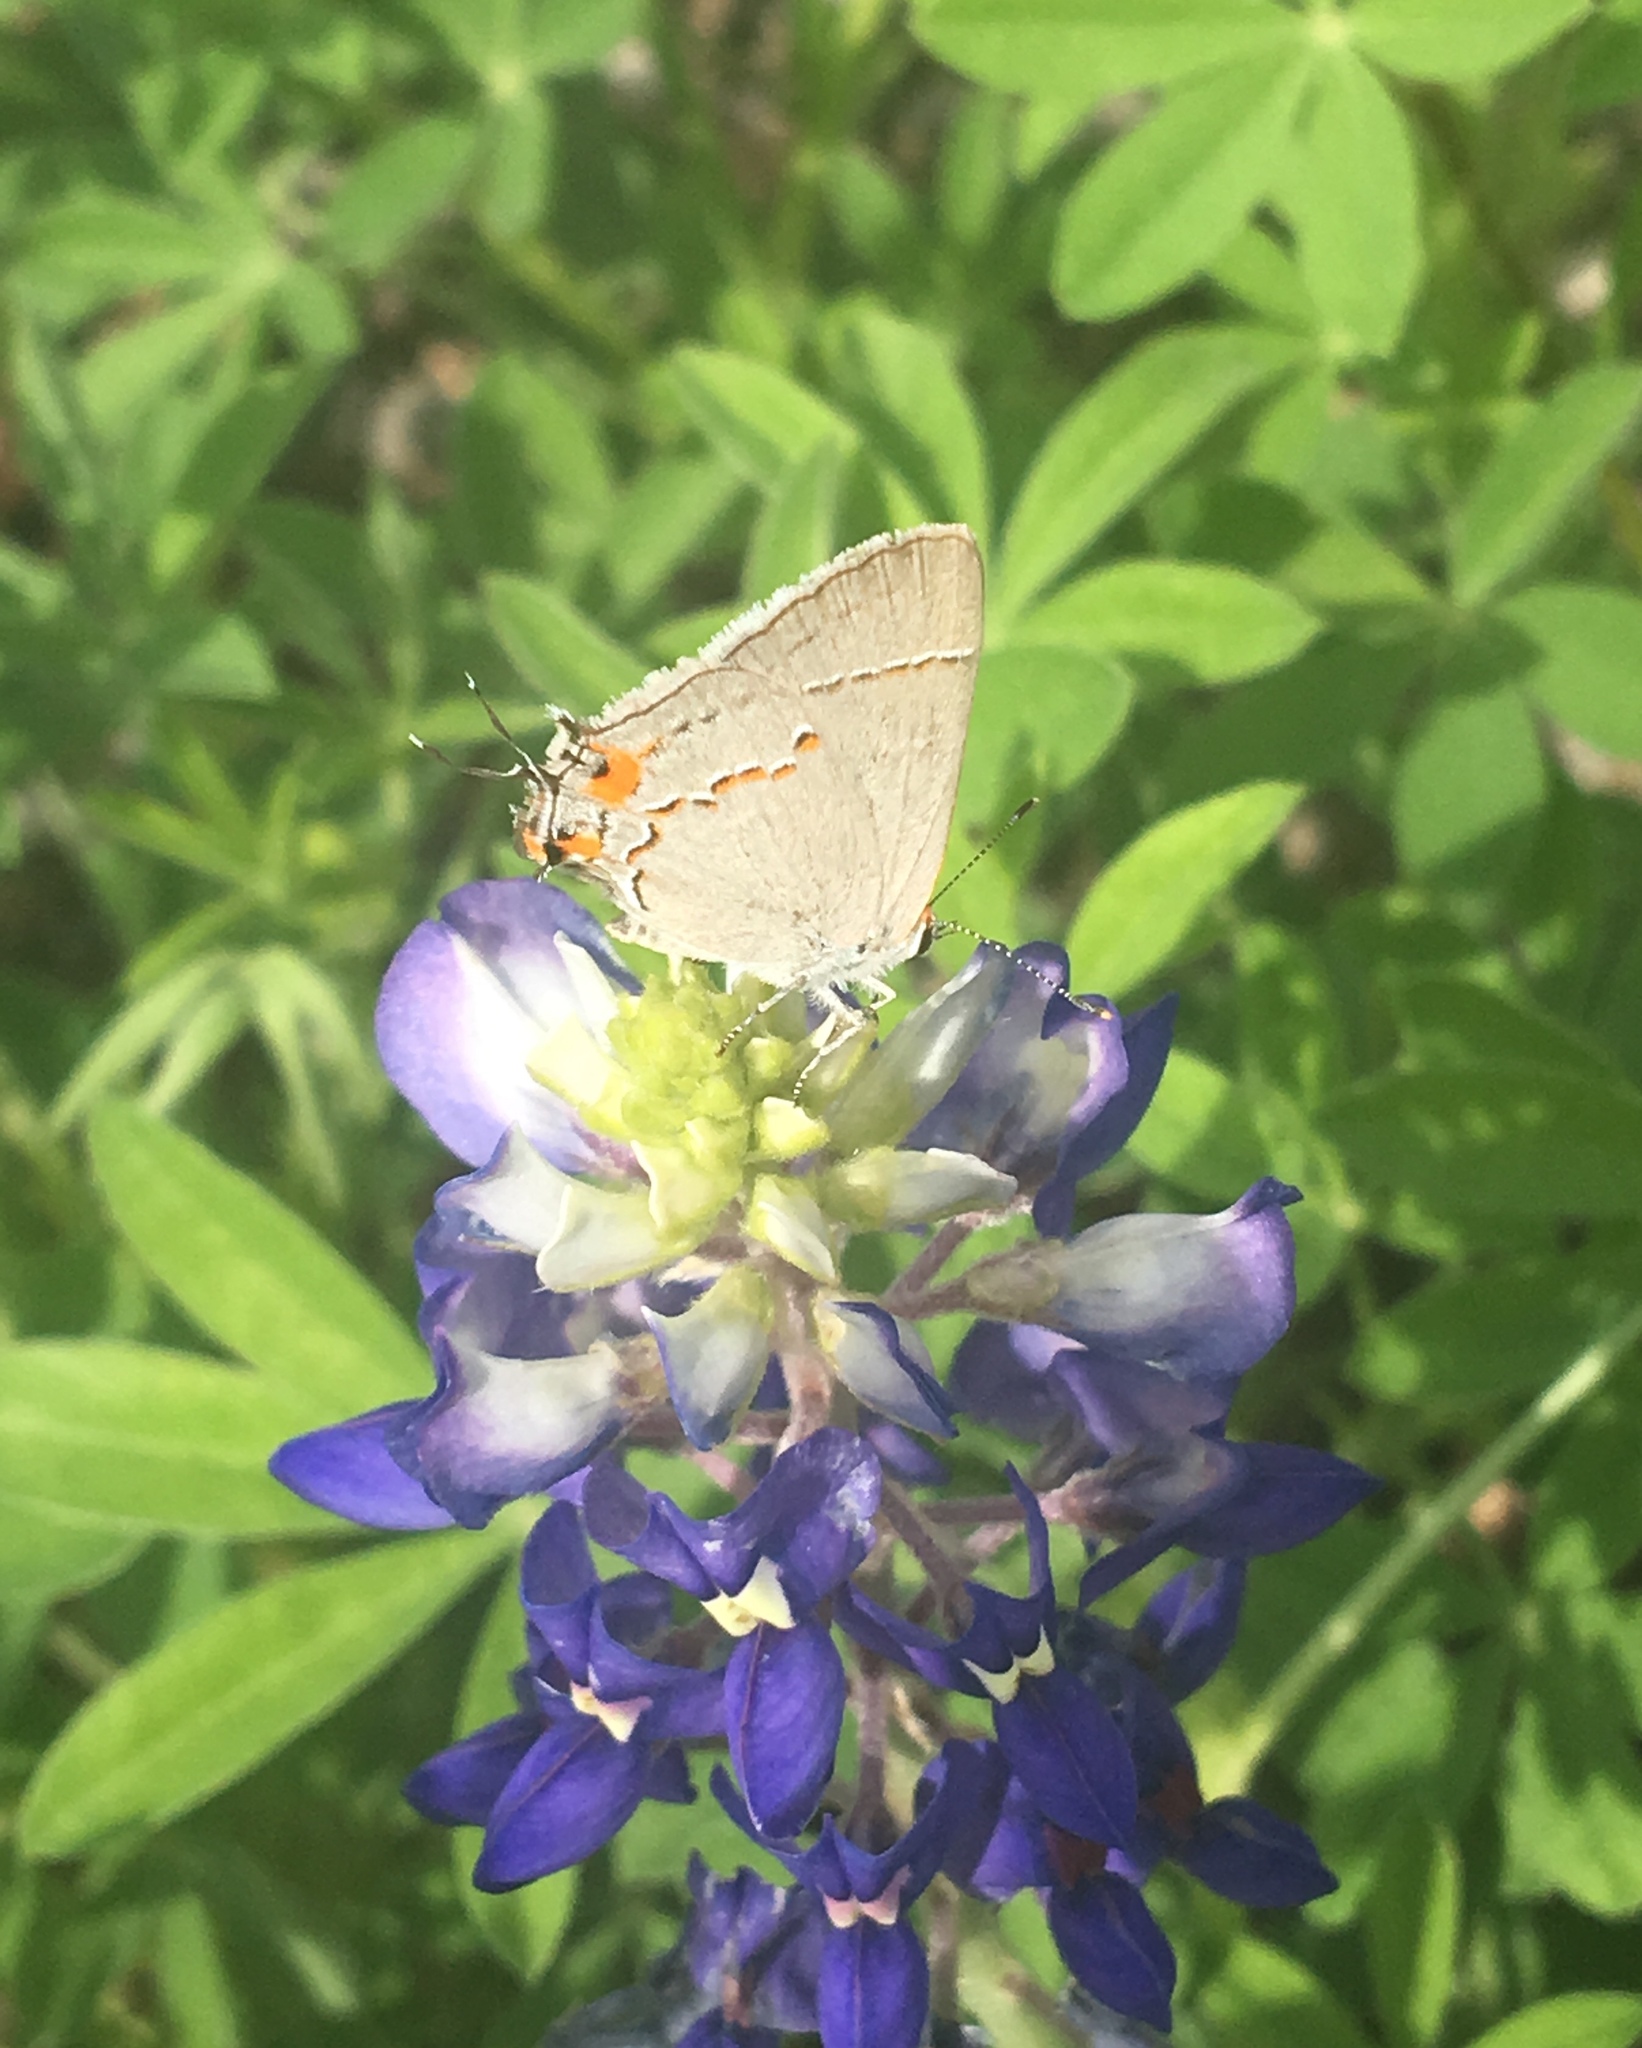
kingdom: Animalia
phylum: Arthropoda
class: Insecta
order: Lepidoptera
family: Lycaenidae
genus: Strymon
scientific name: Strymon melinus
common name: Gray hairstreak
